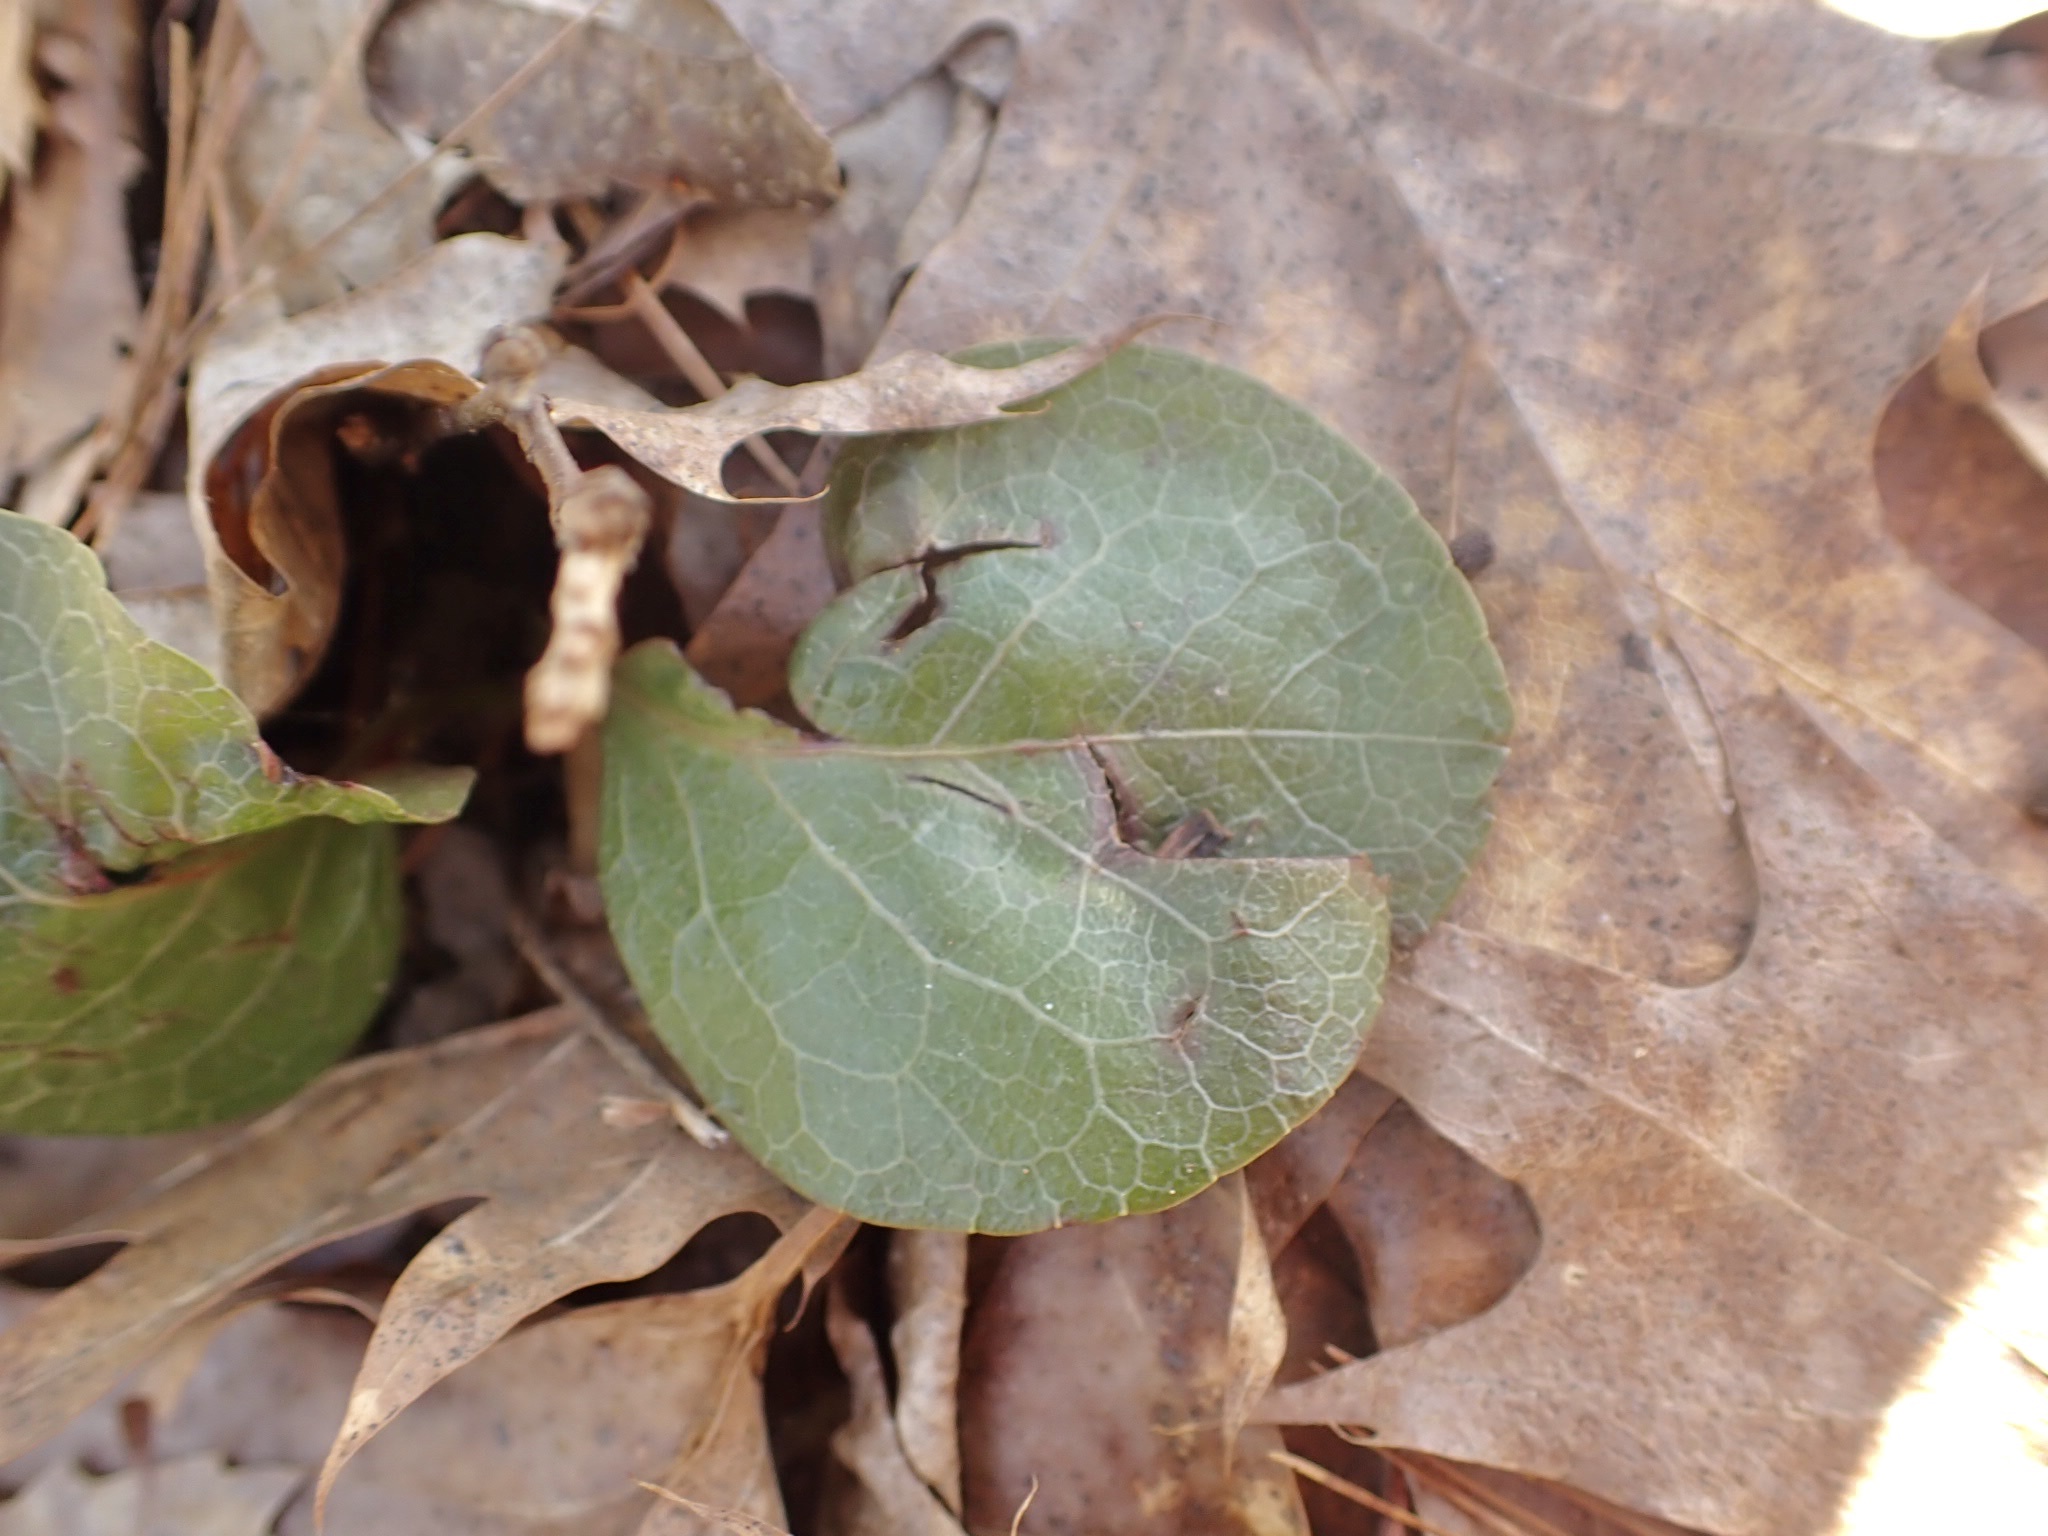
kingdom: Plantae
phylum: Tracheophyta
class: Magnoliopsida
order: Ericales
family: Ericaceae
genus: Pyrola
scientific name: Pyrola americana
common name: American wintergreen
